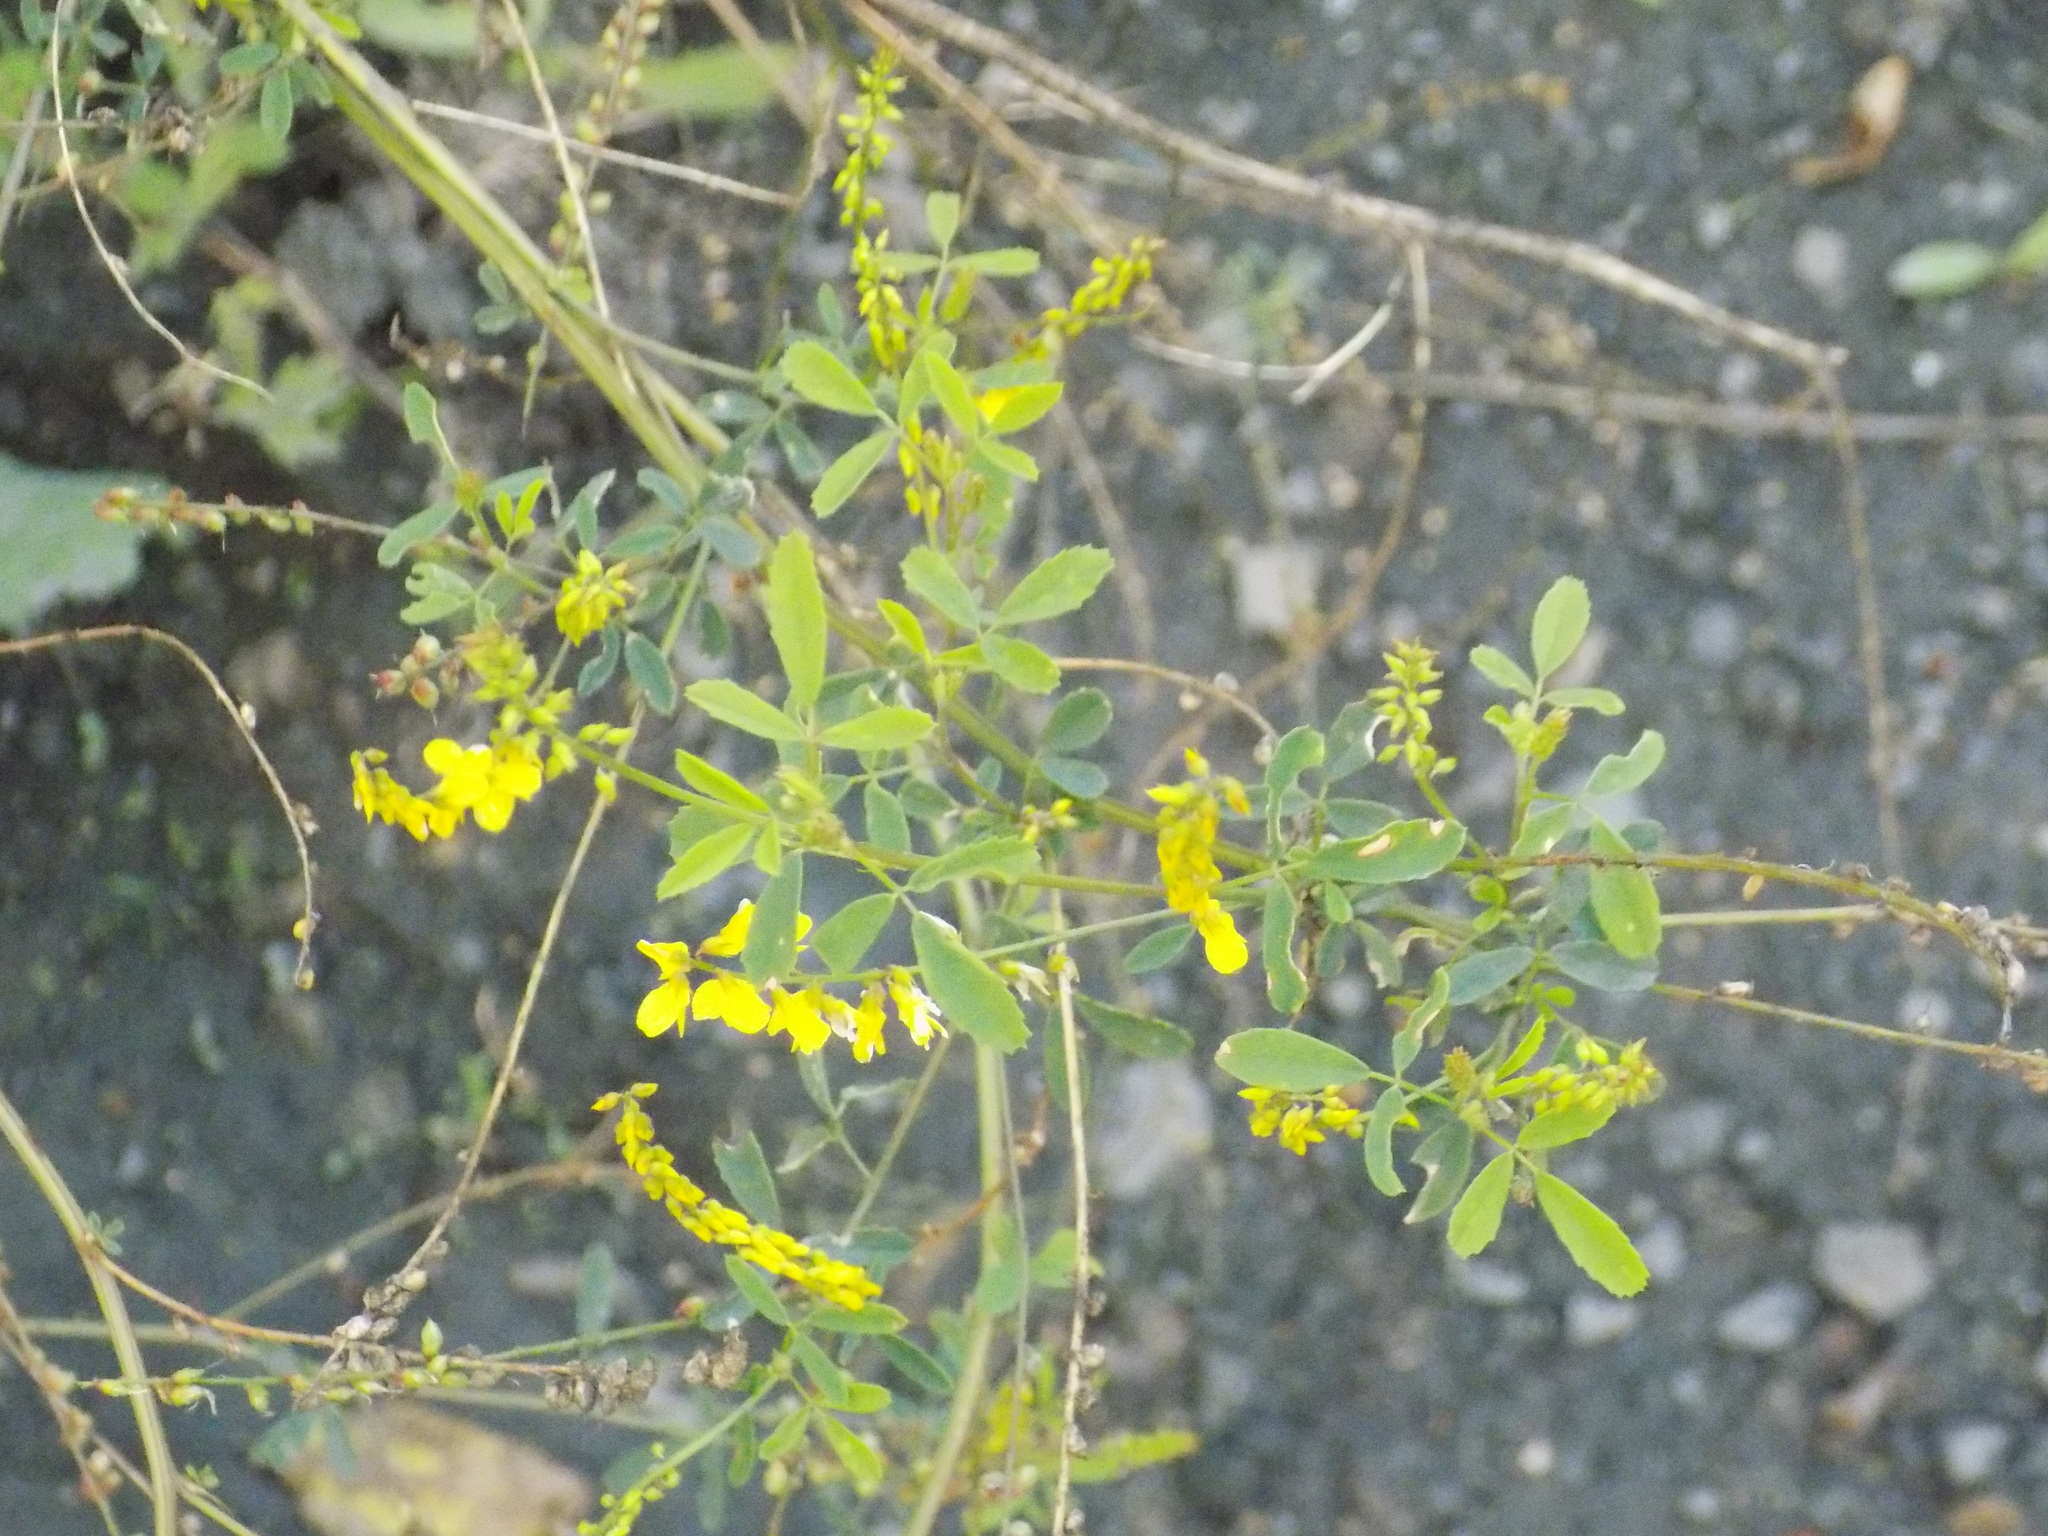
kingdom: Plantae
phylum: Tracheophyta
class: Magnoliopsida
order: Fabales
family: Fabaceae
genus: Melilotus
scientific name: Melilotus officinalis
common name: Sweetclover
